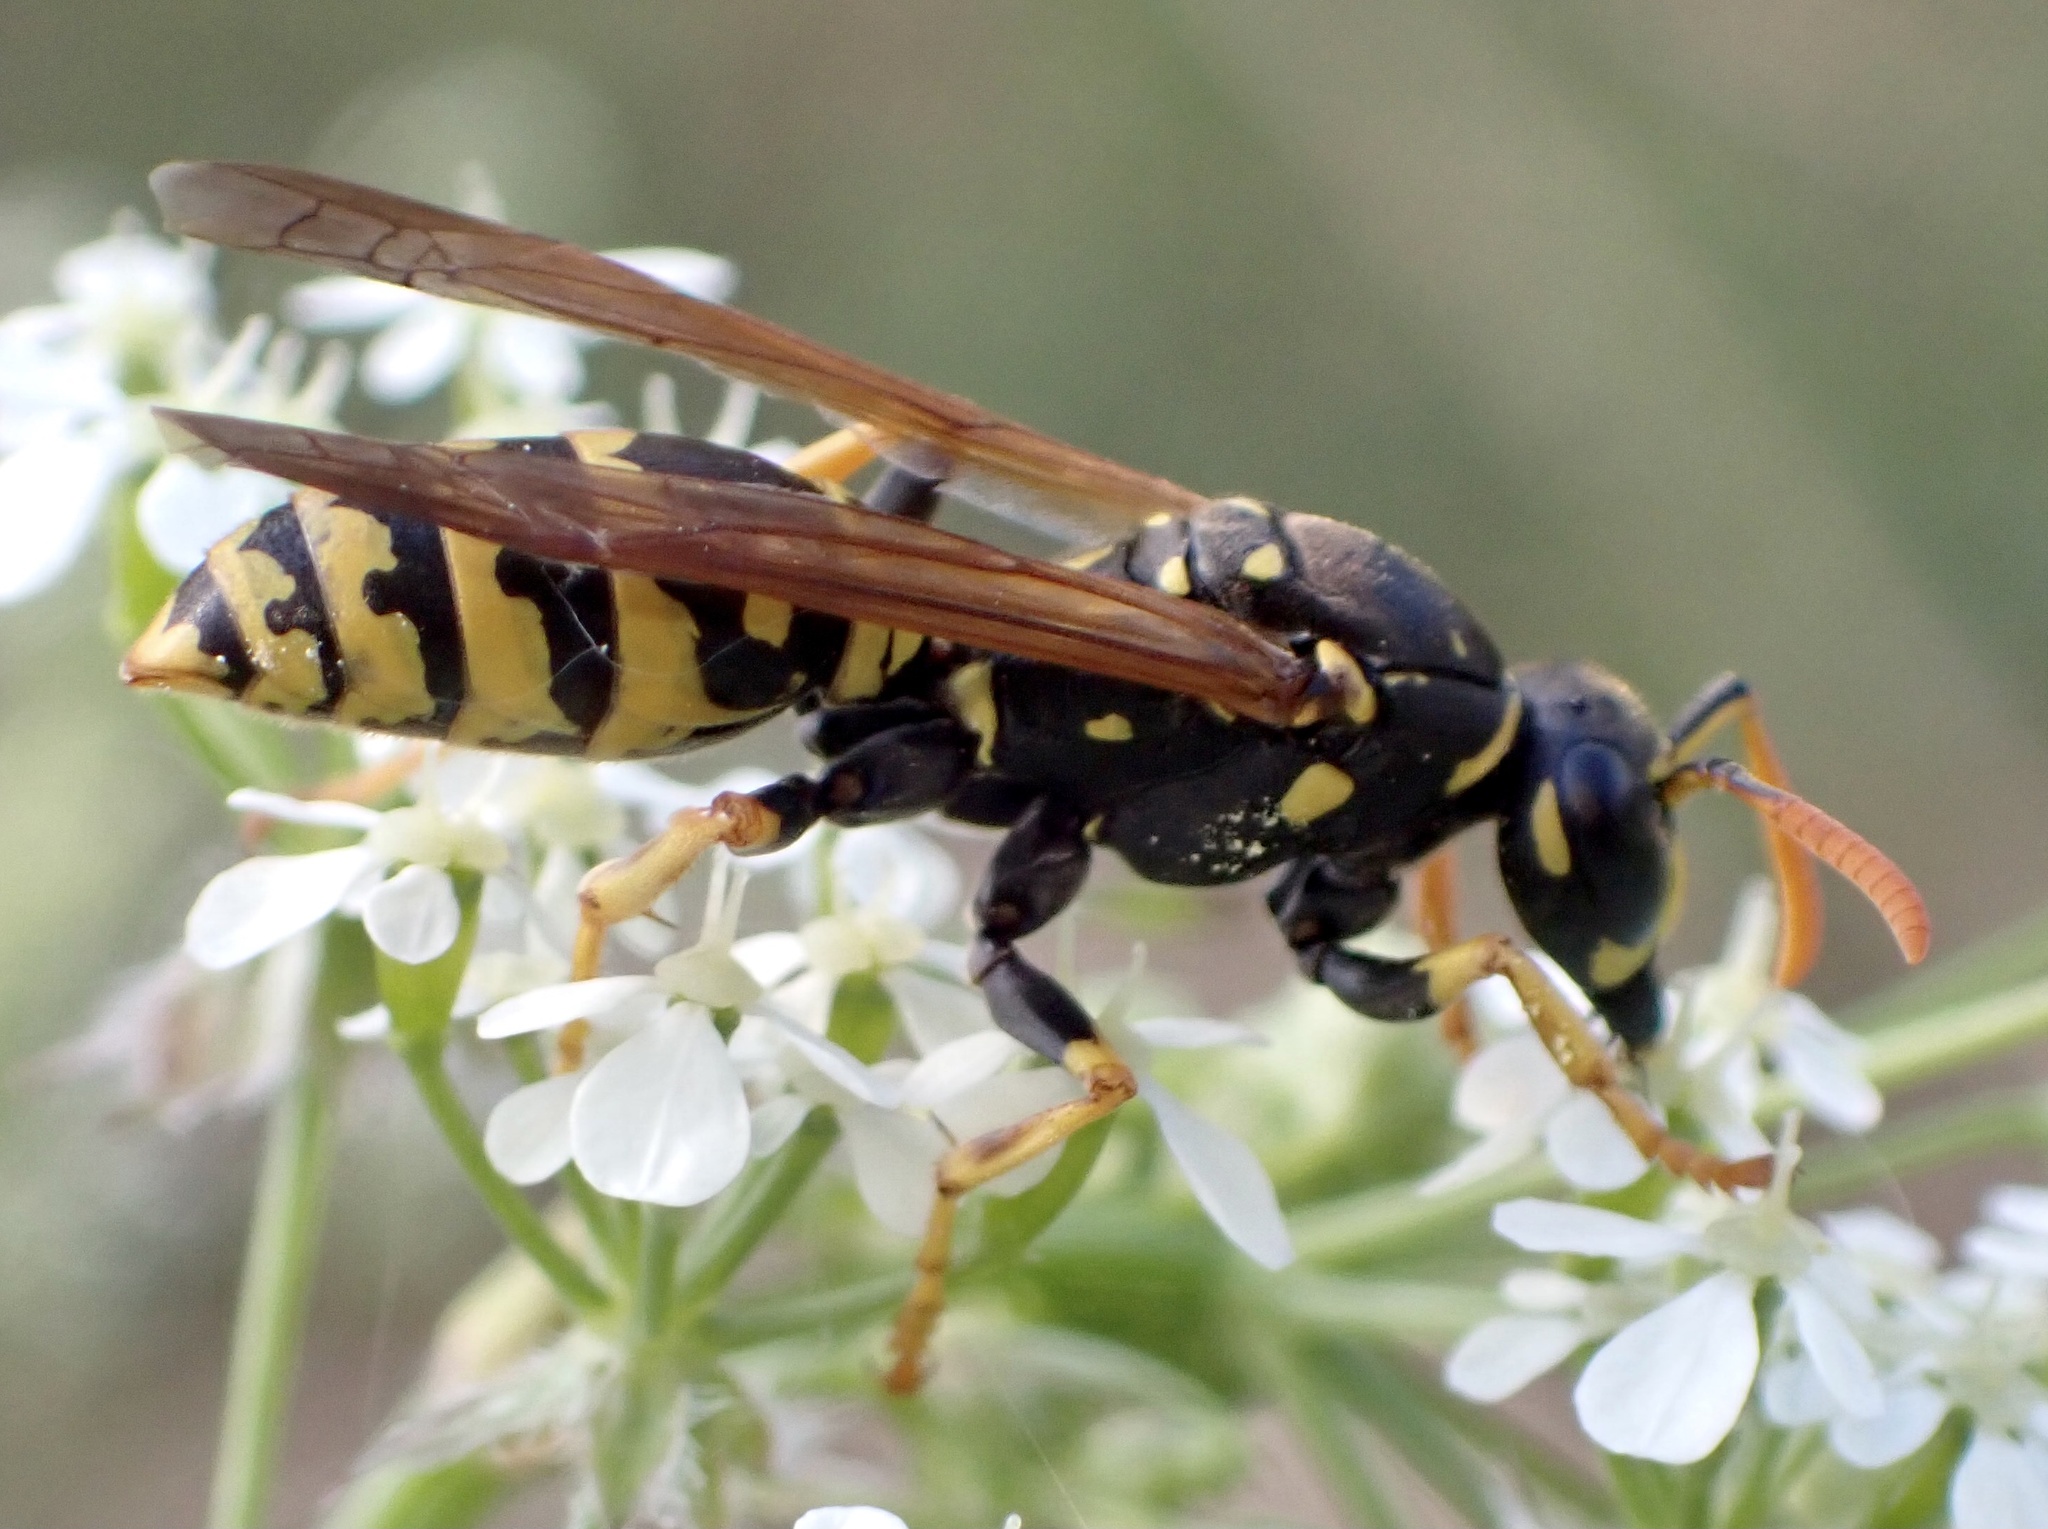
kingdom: Animalia
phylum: Arthropoda
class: Insecta
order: Hymenoptera
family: Eumenidae
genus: Polistes
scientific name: Polistes dominula
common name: Paper wasp
